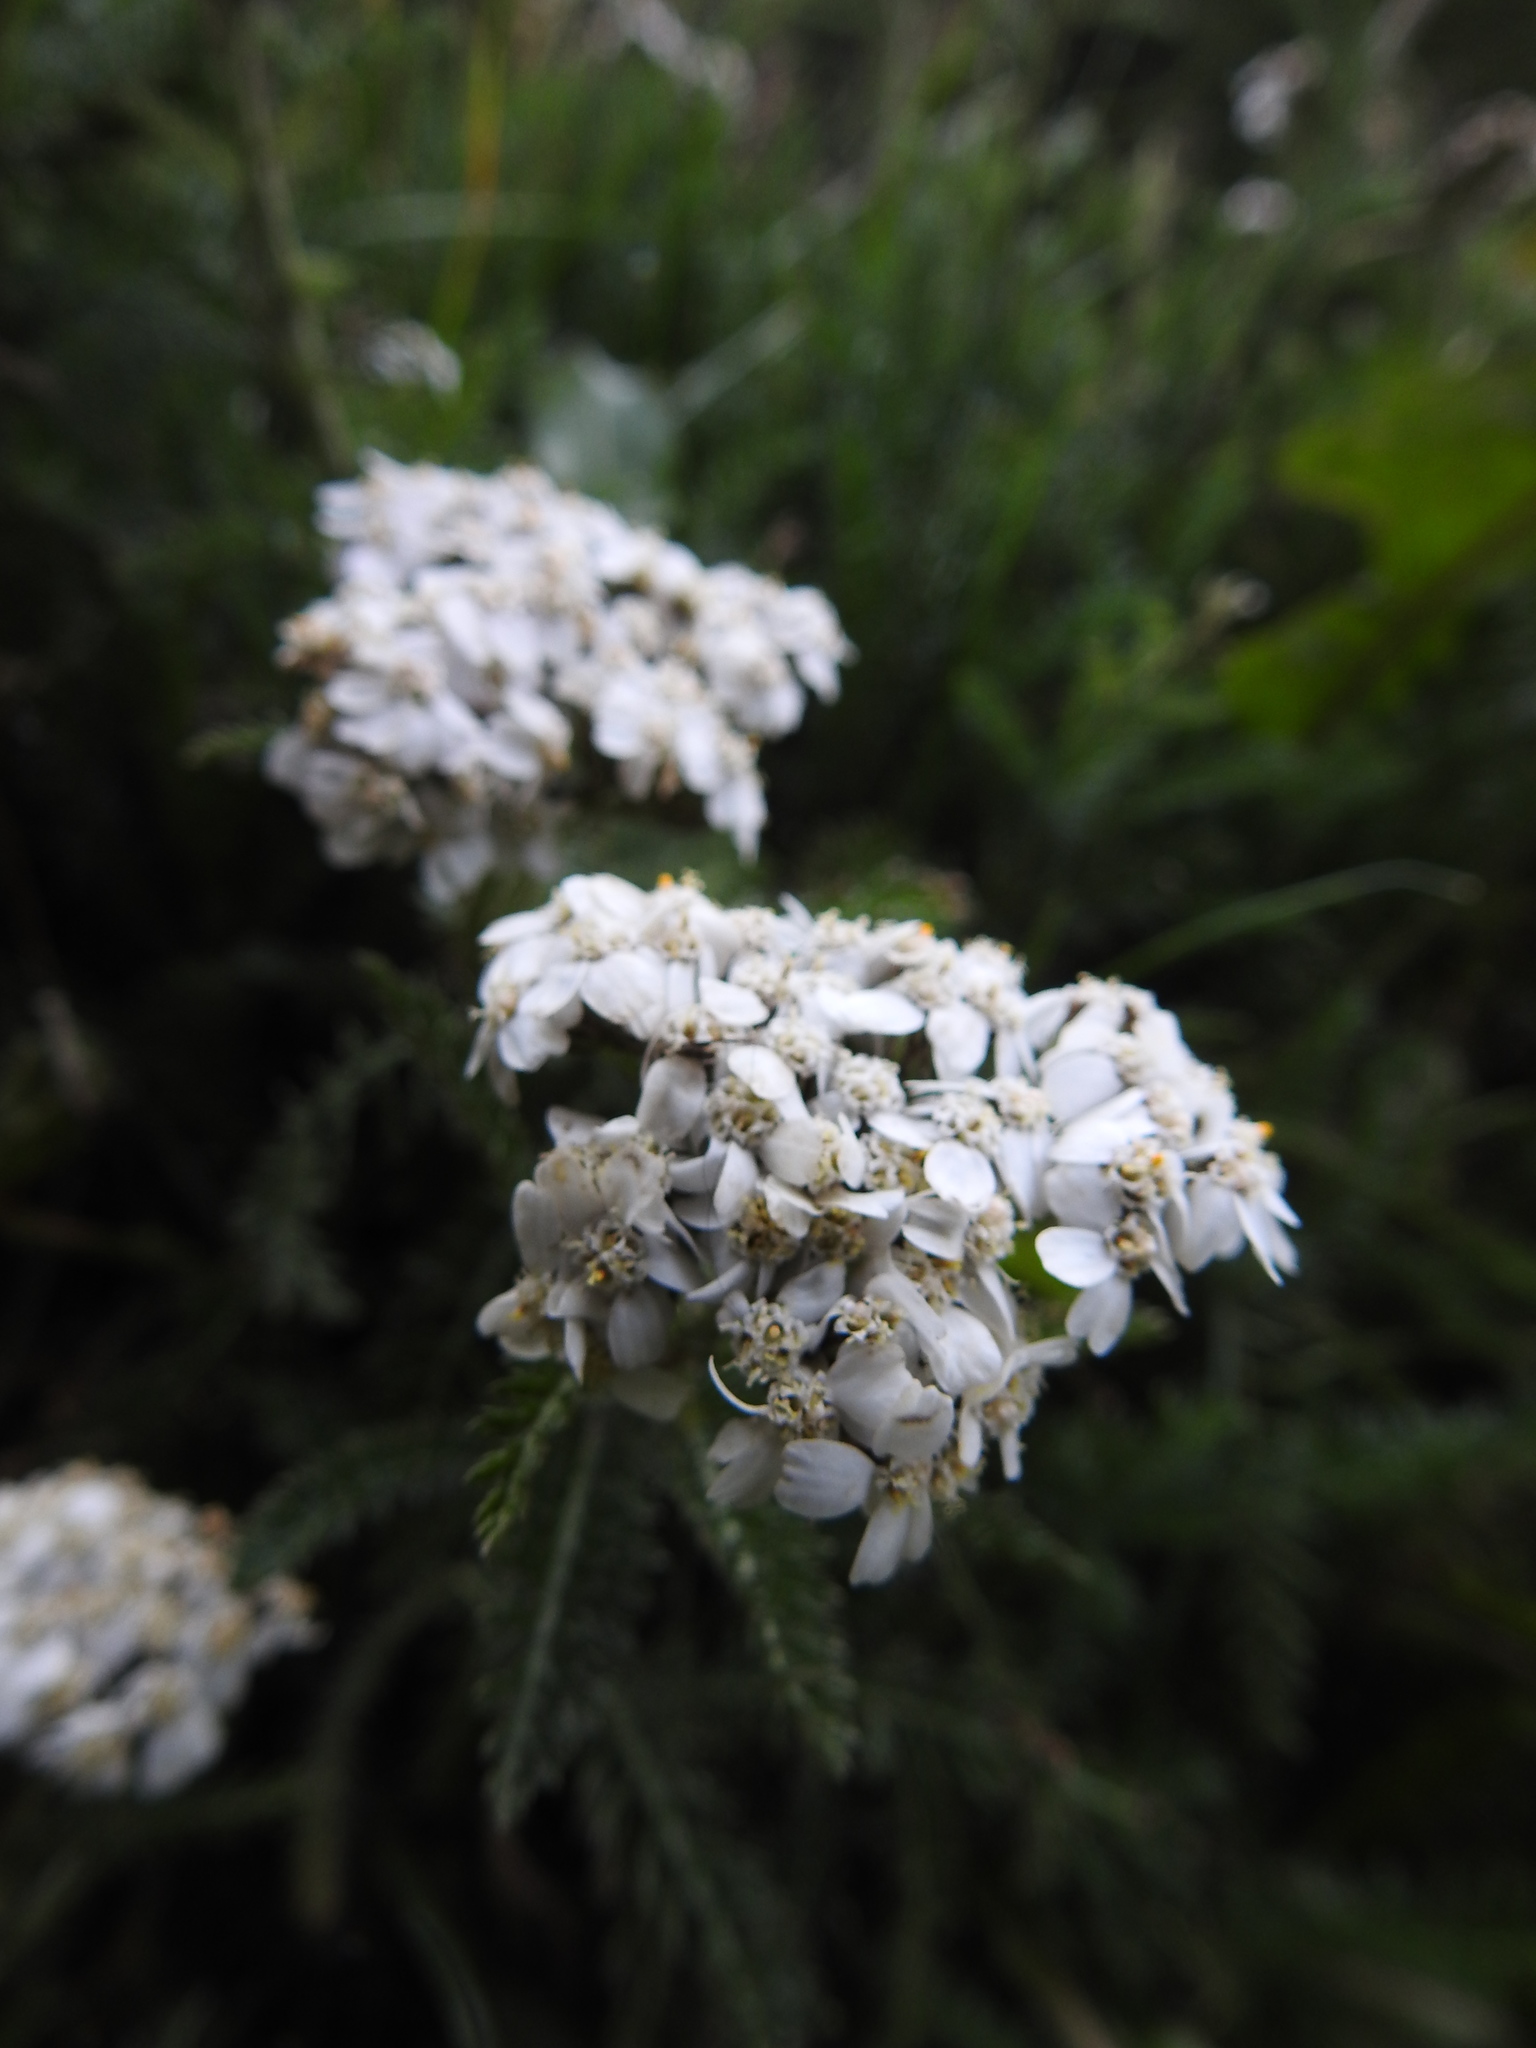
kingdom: Plantae
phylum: Tracheophyta
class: Magnoliopsida
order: Asterales
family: Asteraceae
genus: Achillea
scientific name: Achillea millefolium
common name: Yarrow
